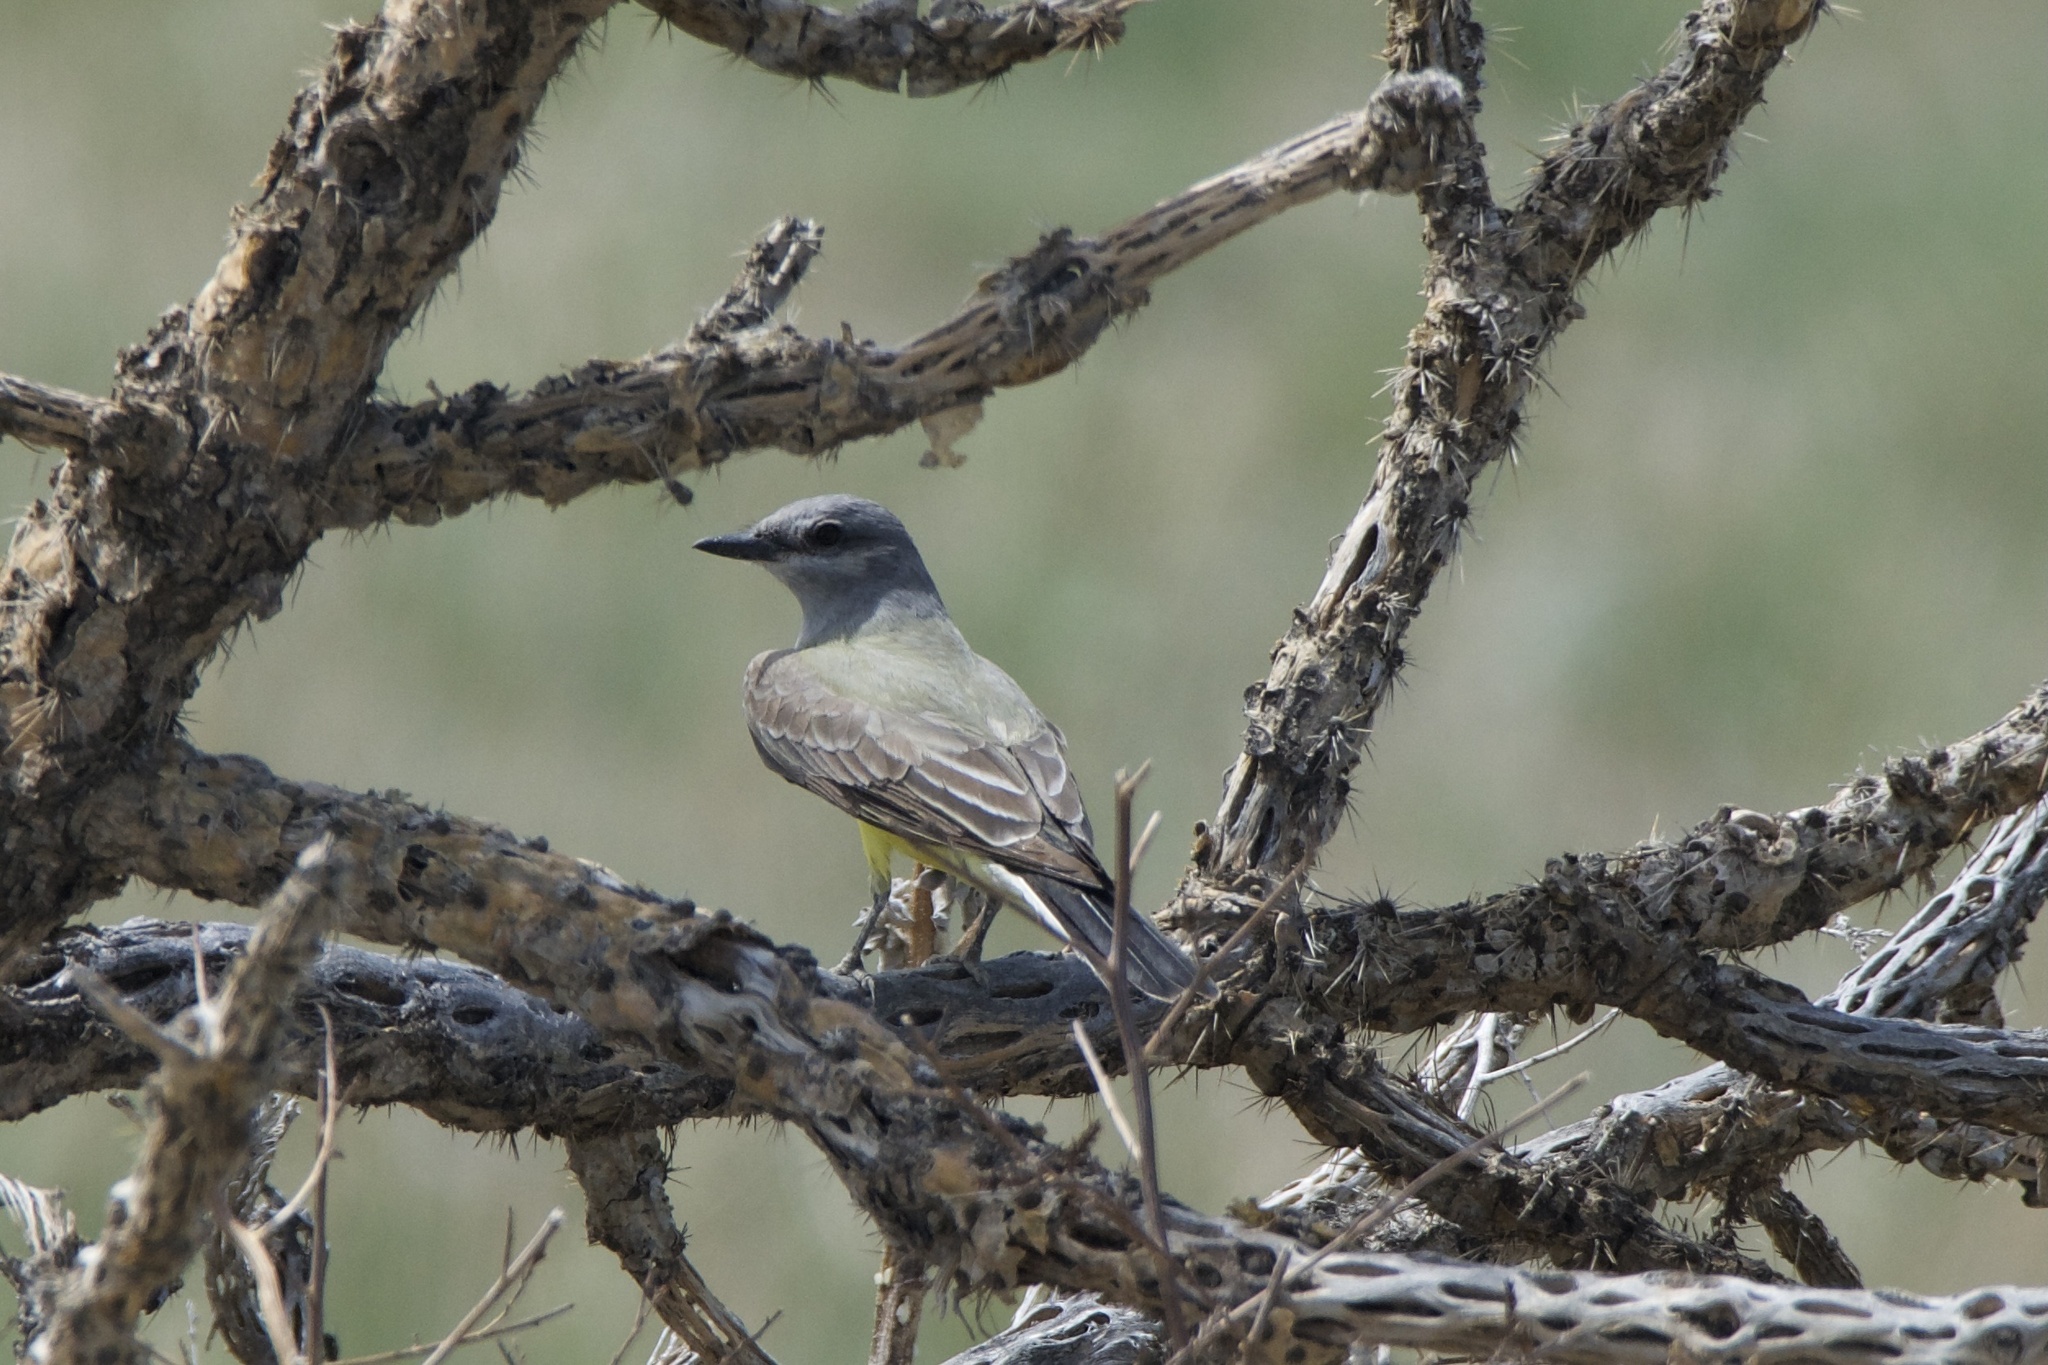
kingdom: Animalia
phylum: Chordata
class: Aves
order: Passeriformes
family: Tyrannidae
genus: Tyrannus
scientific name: Tyrannus verticalis
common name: Western kingbird
